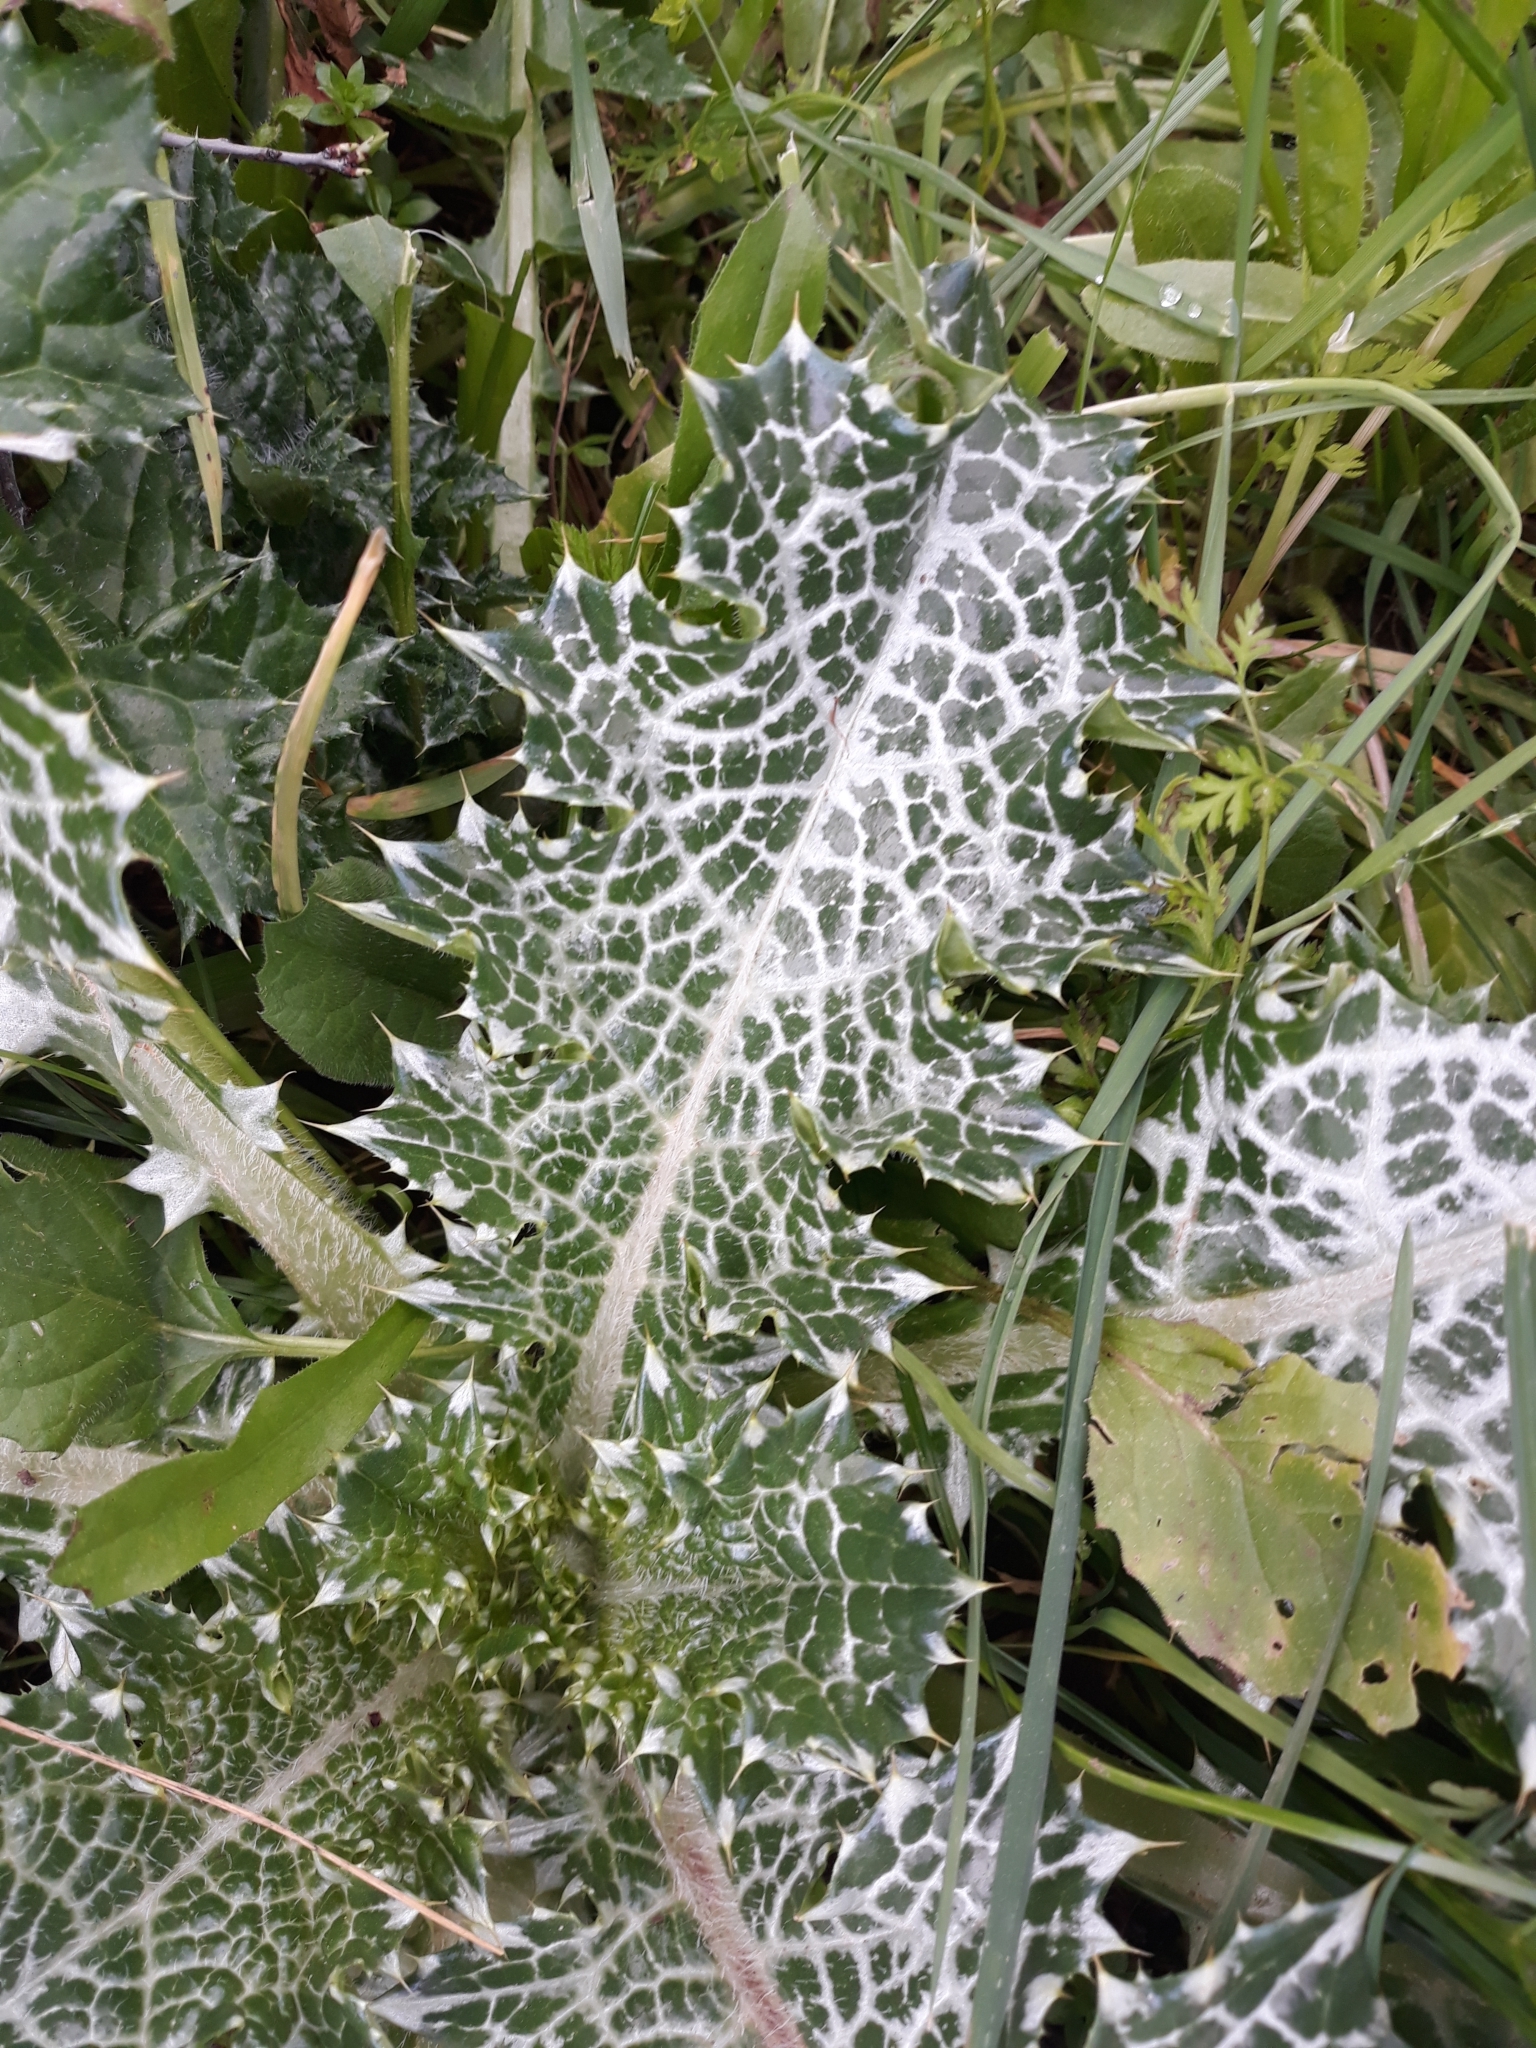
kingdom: Plantae
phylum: Tracheophyta
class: Magnoliopsida
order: Asterales
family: Asteraceae
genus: Notobasis
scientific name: Notobasis syriaca
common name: Syrian thistle
